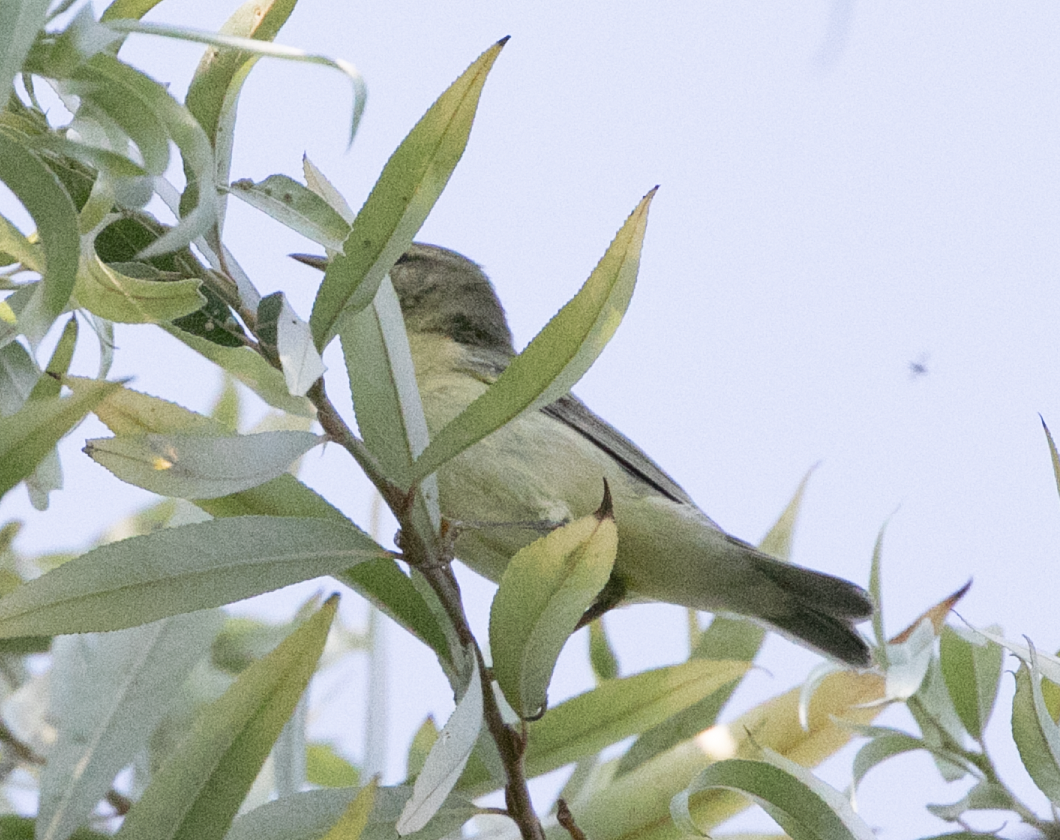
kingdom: Animalia
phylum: Chordata
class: Aves
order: Passeriformes
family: Phylloscopidae
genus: Phylloscopus
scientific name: Phylloscopus trochilus
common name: Willow warbler
